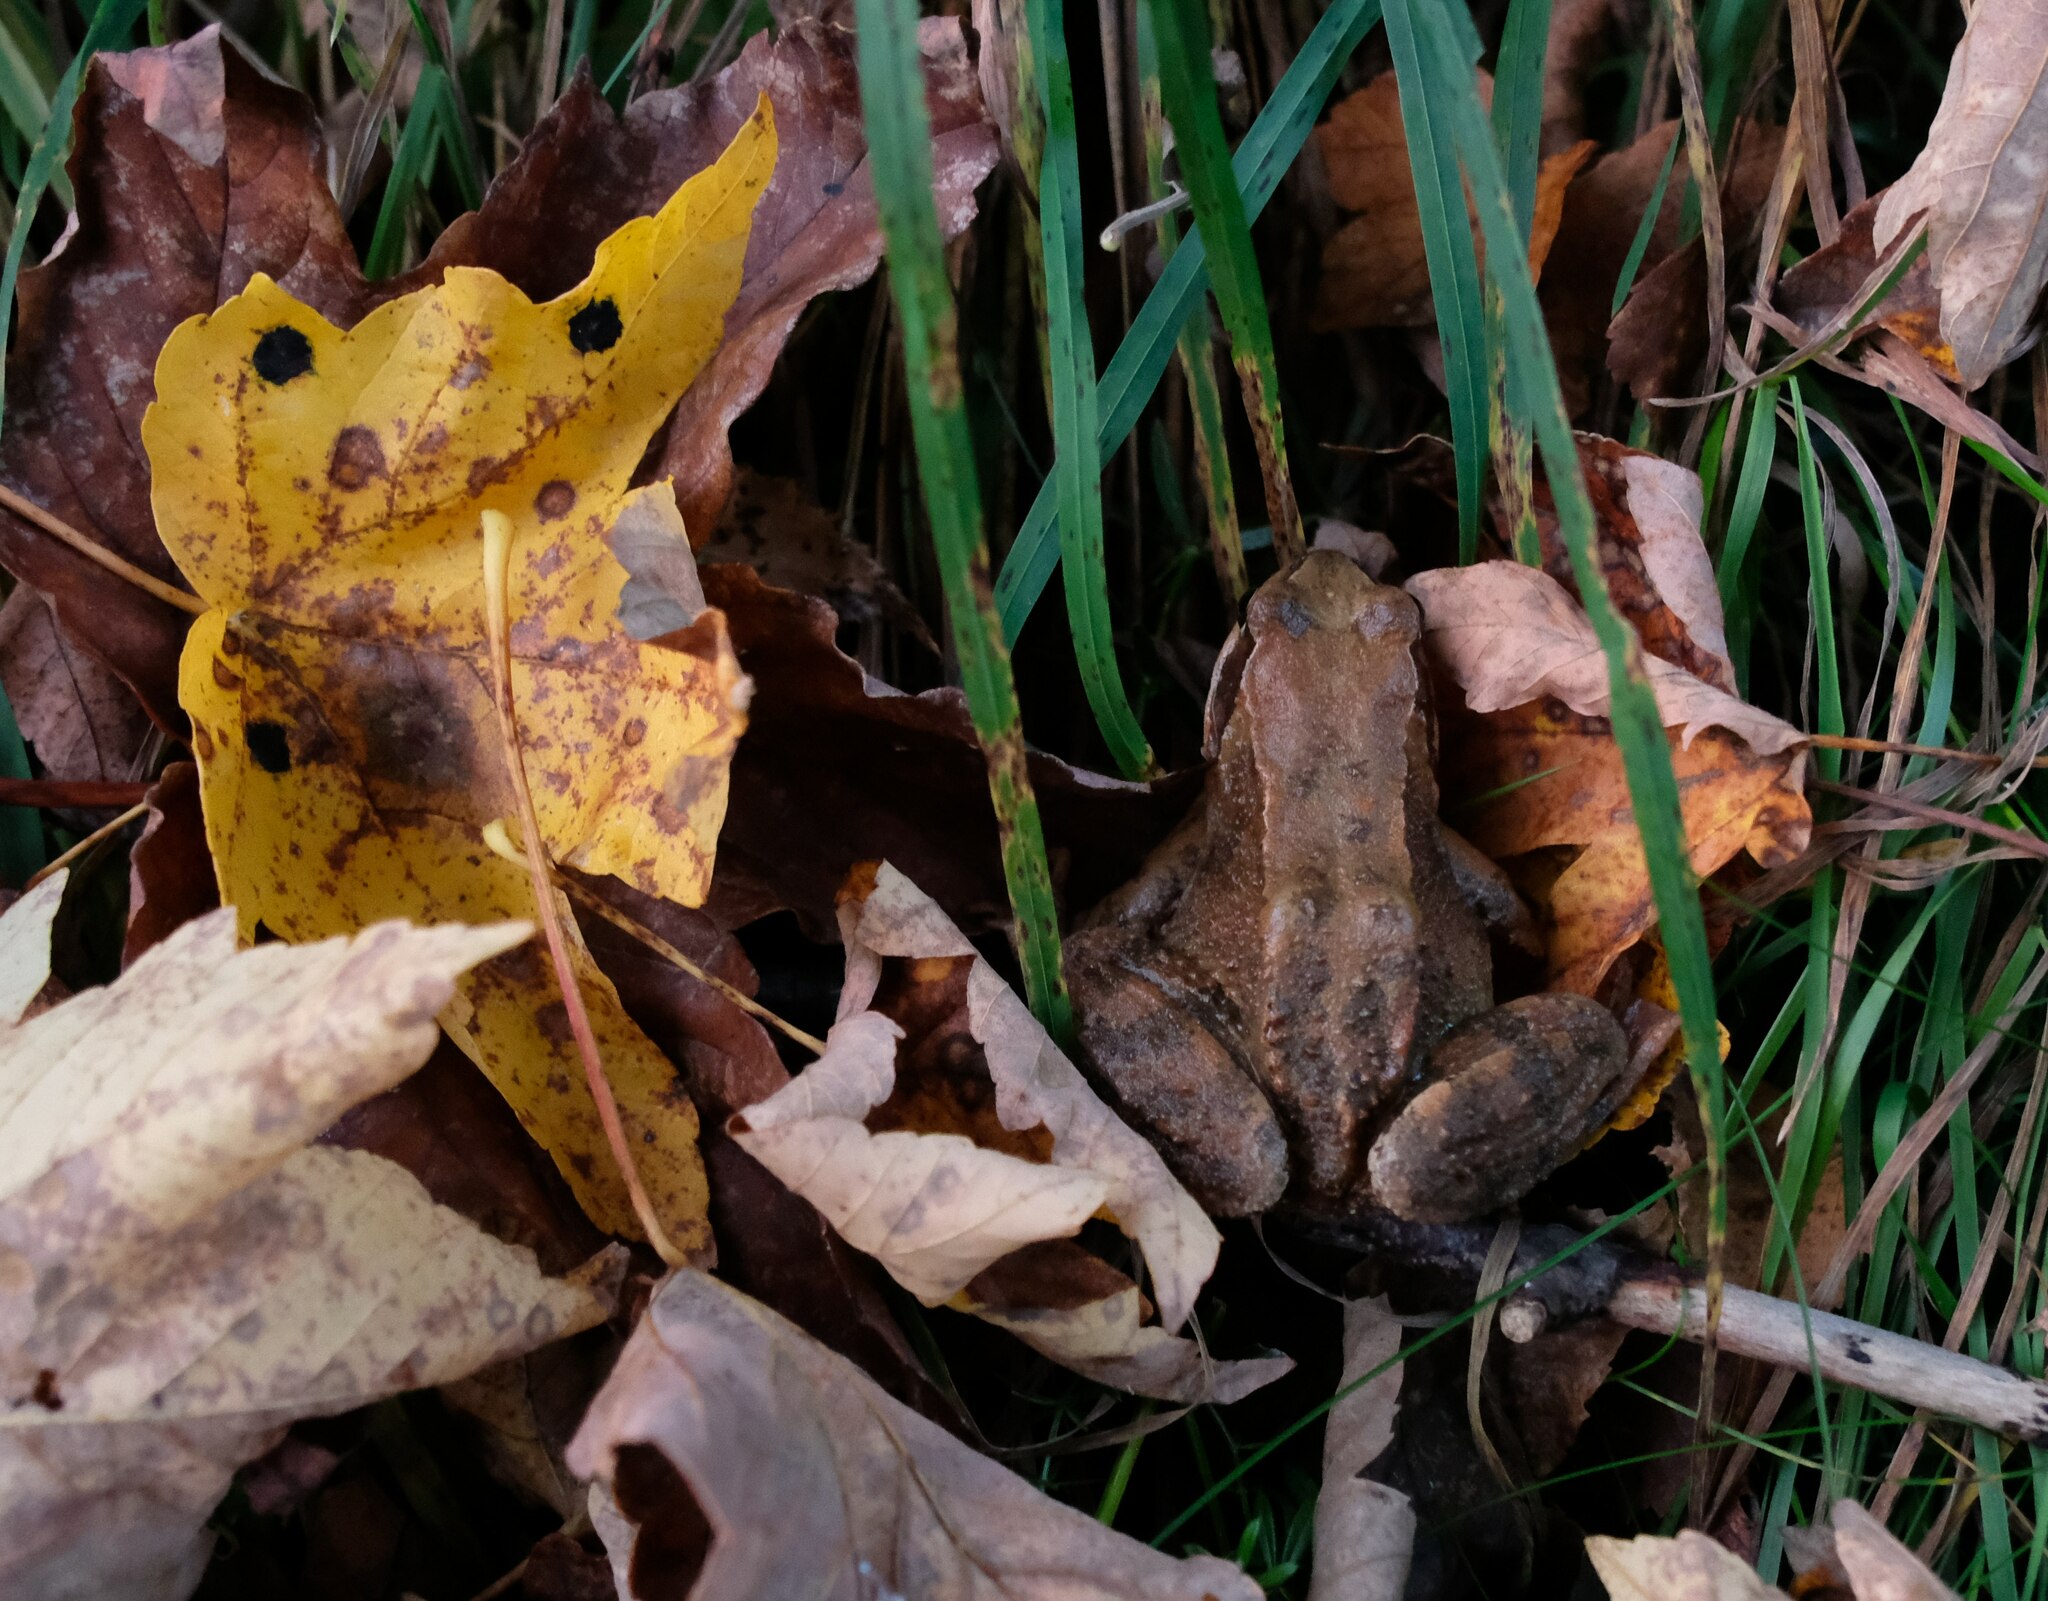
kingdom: Animalia
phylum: Chordata
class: Amphibia
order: Anura
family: Ranidae
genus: Rana
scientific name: Rana temporaria
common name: Common frog
